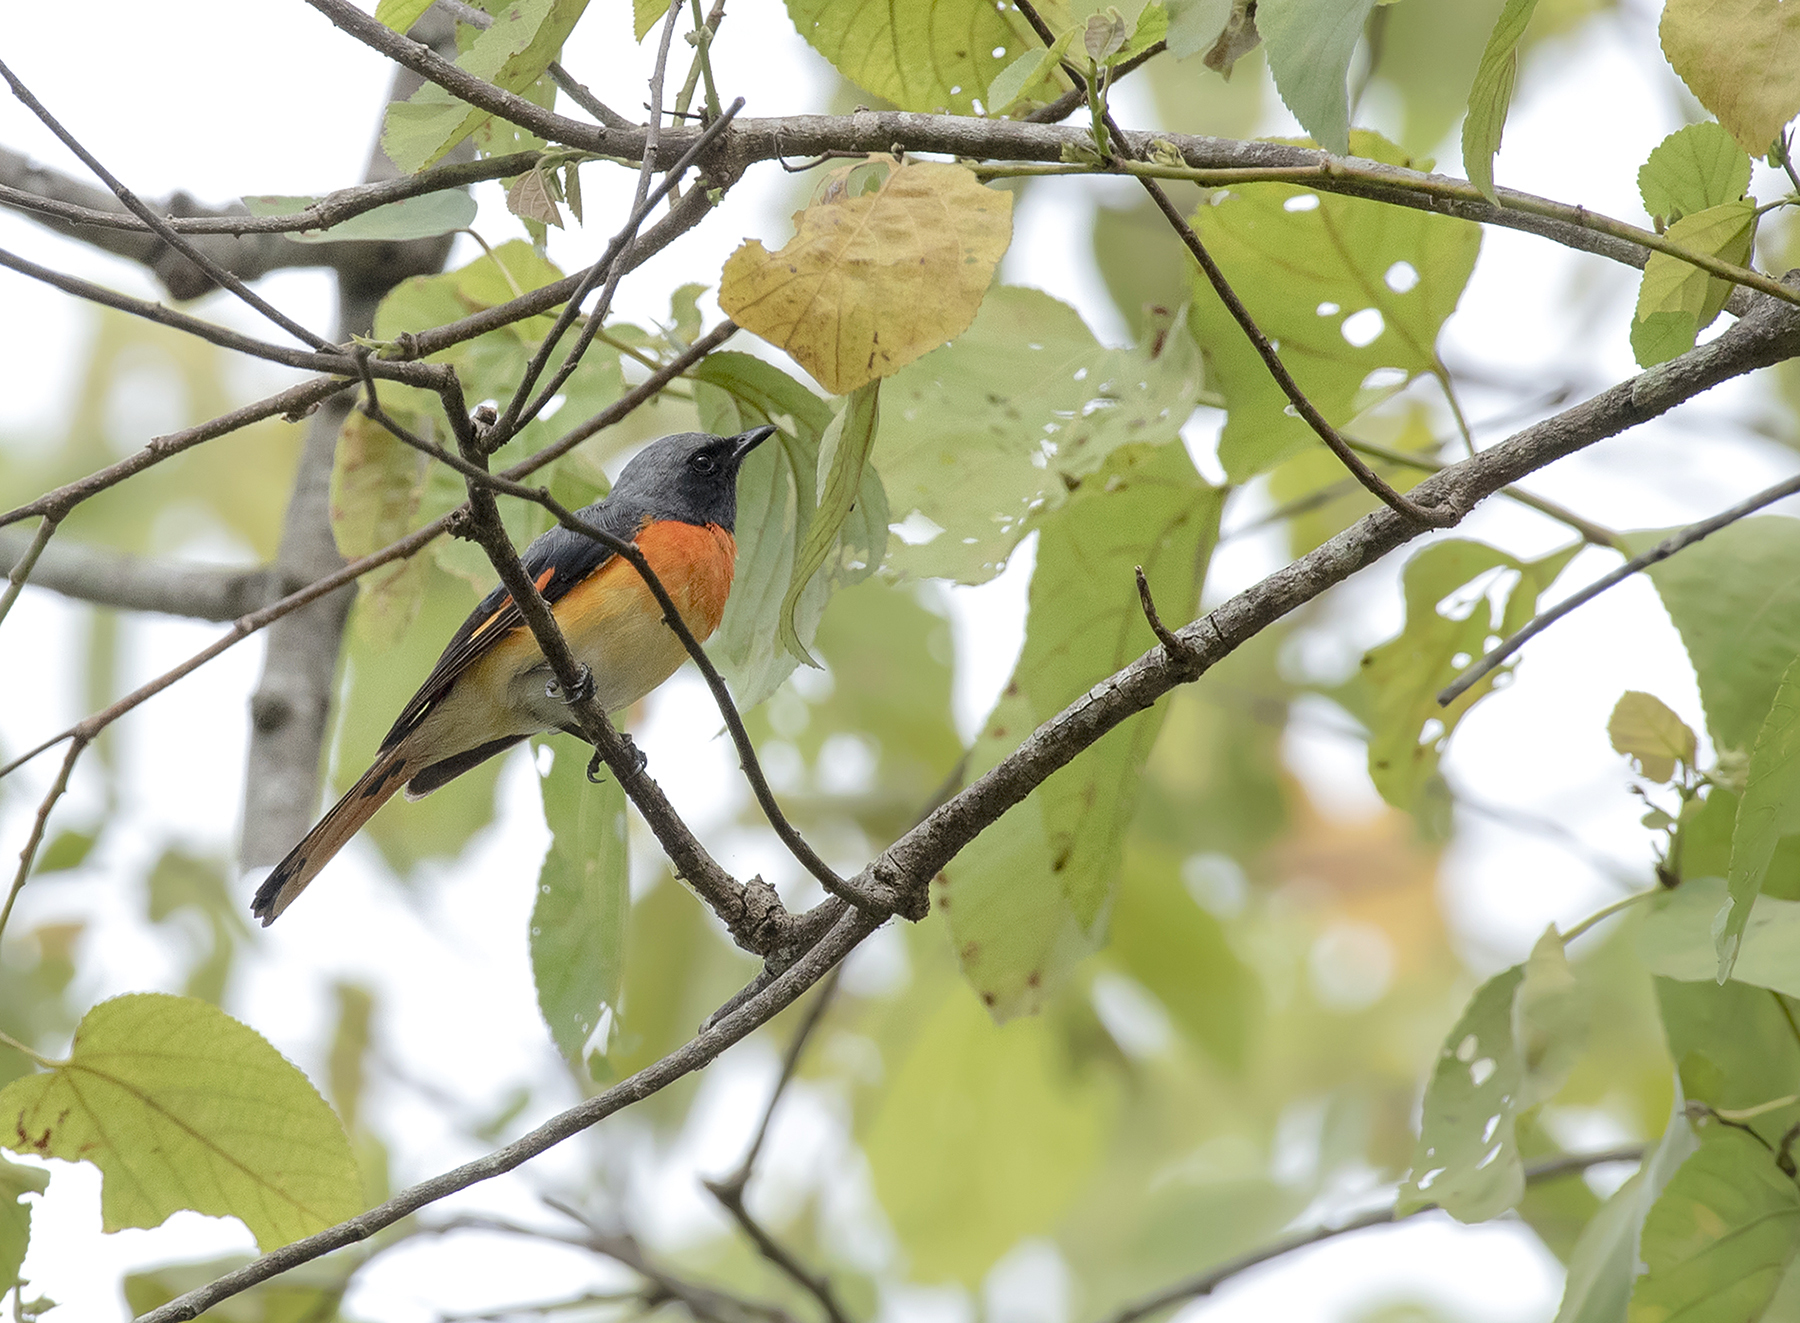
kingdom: Animalia
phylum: Chordata
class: Aves
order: Passeriformes
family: Campephagidae
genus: Pericrocotus
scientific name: Pericrocotus cinnamomeus
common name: Small minivet
